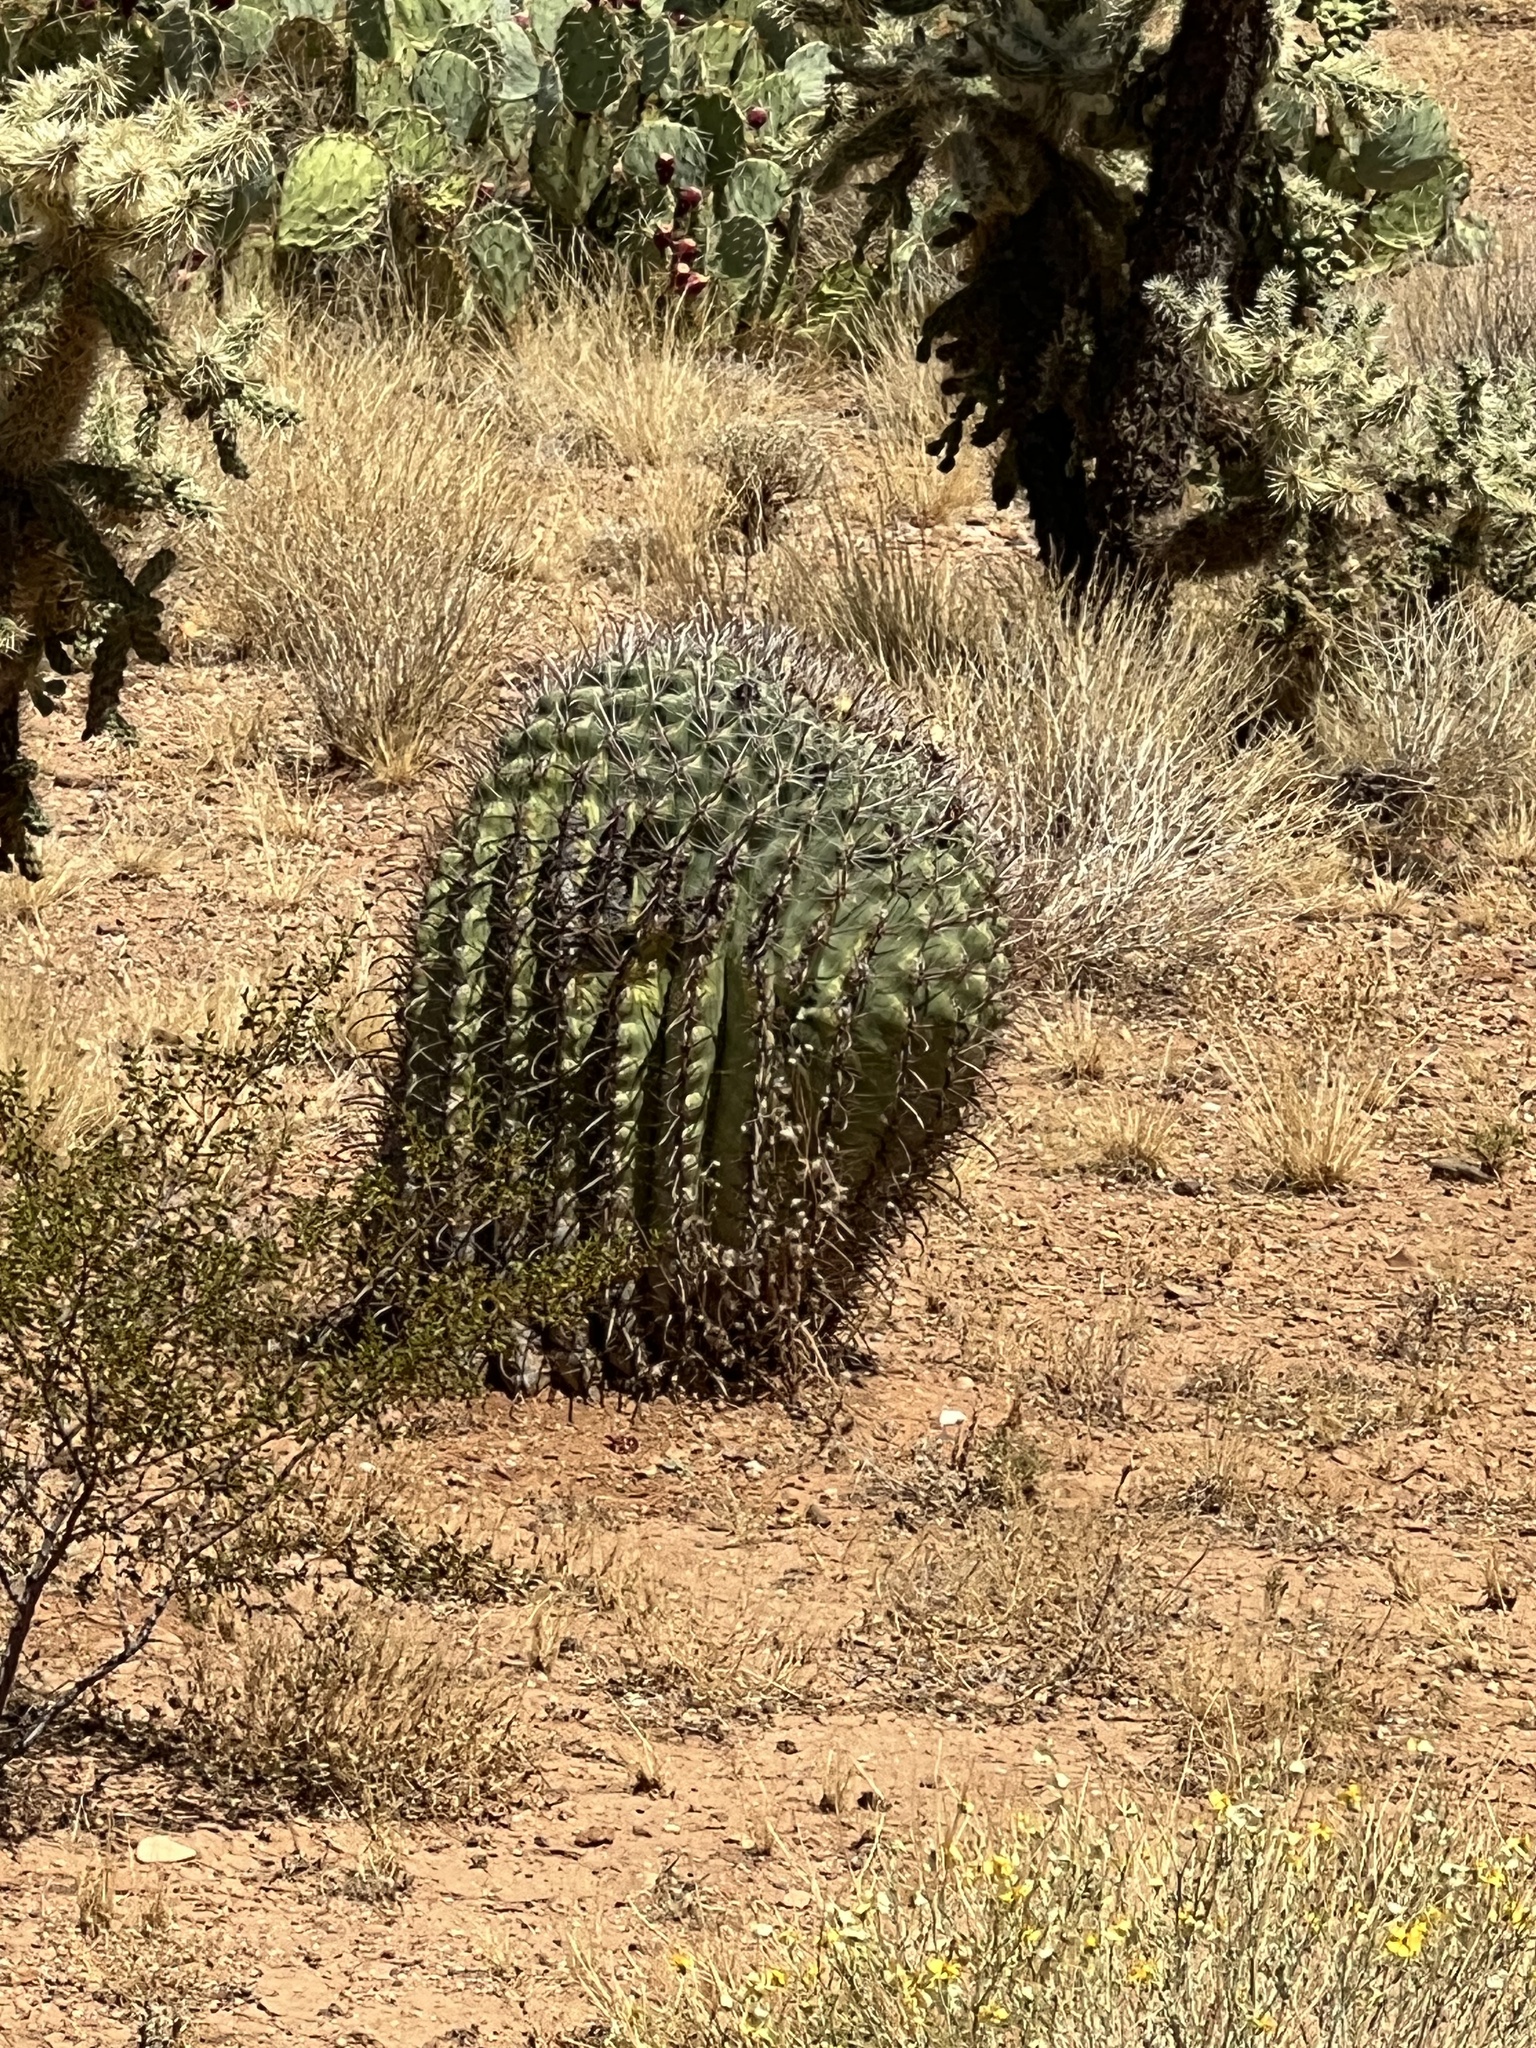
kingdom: Plantae
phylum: Tracheophyta
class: Magnoliopsida
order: Caryophyllales
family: Cactaceae
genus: Ferocactus
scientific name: Ferocactus wislizeni
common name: Candy barrel cactus
